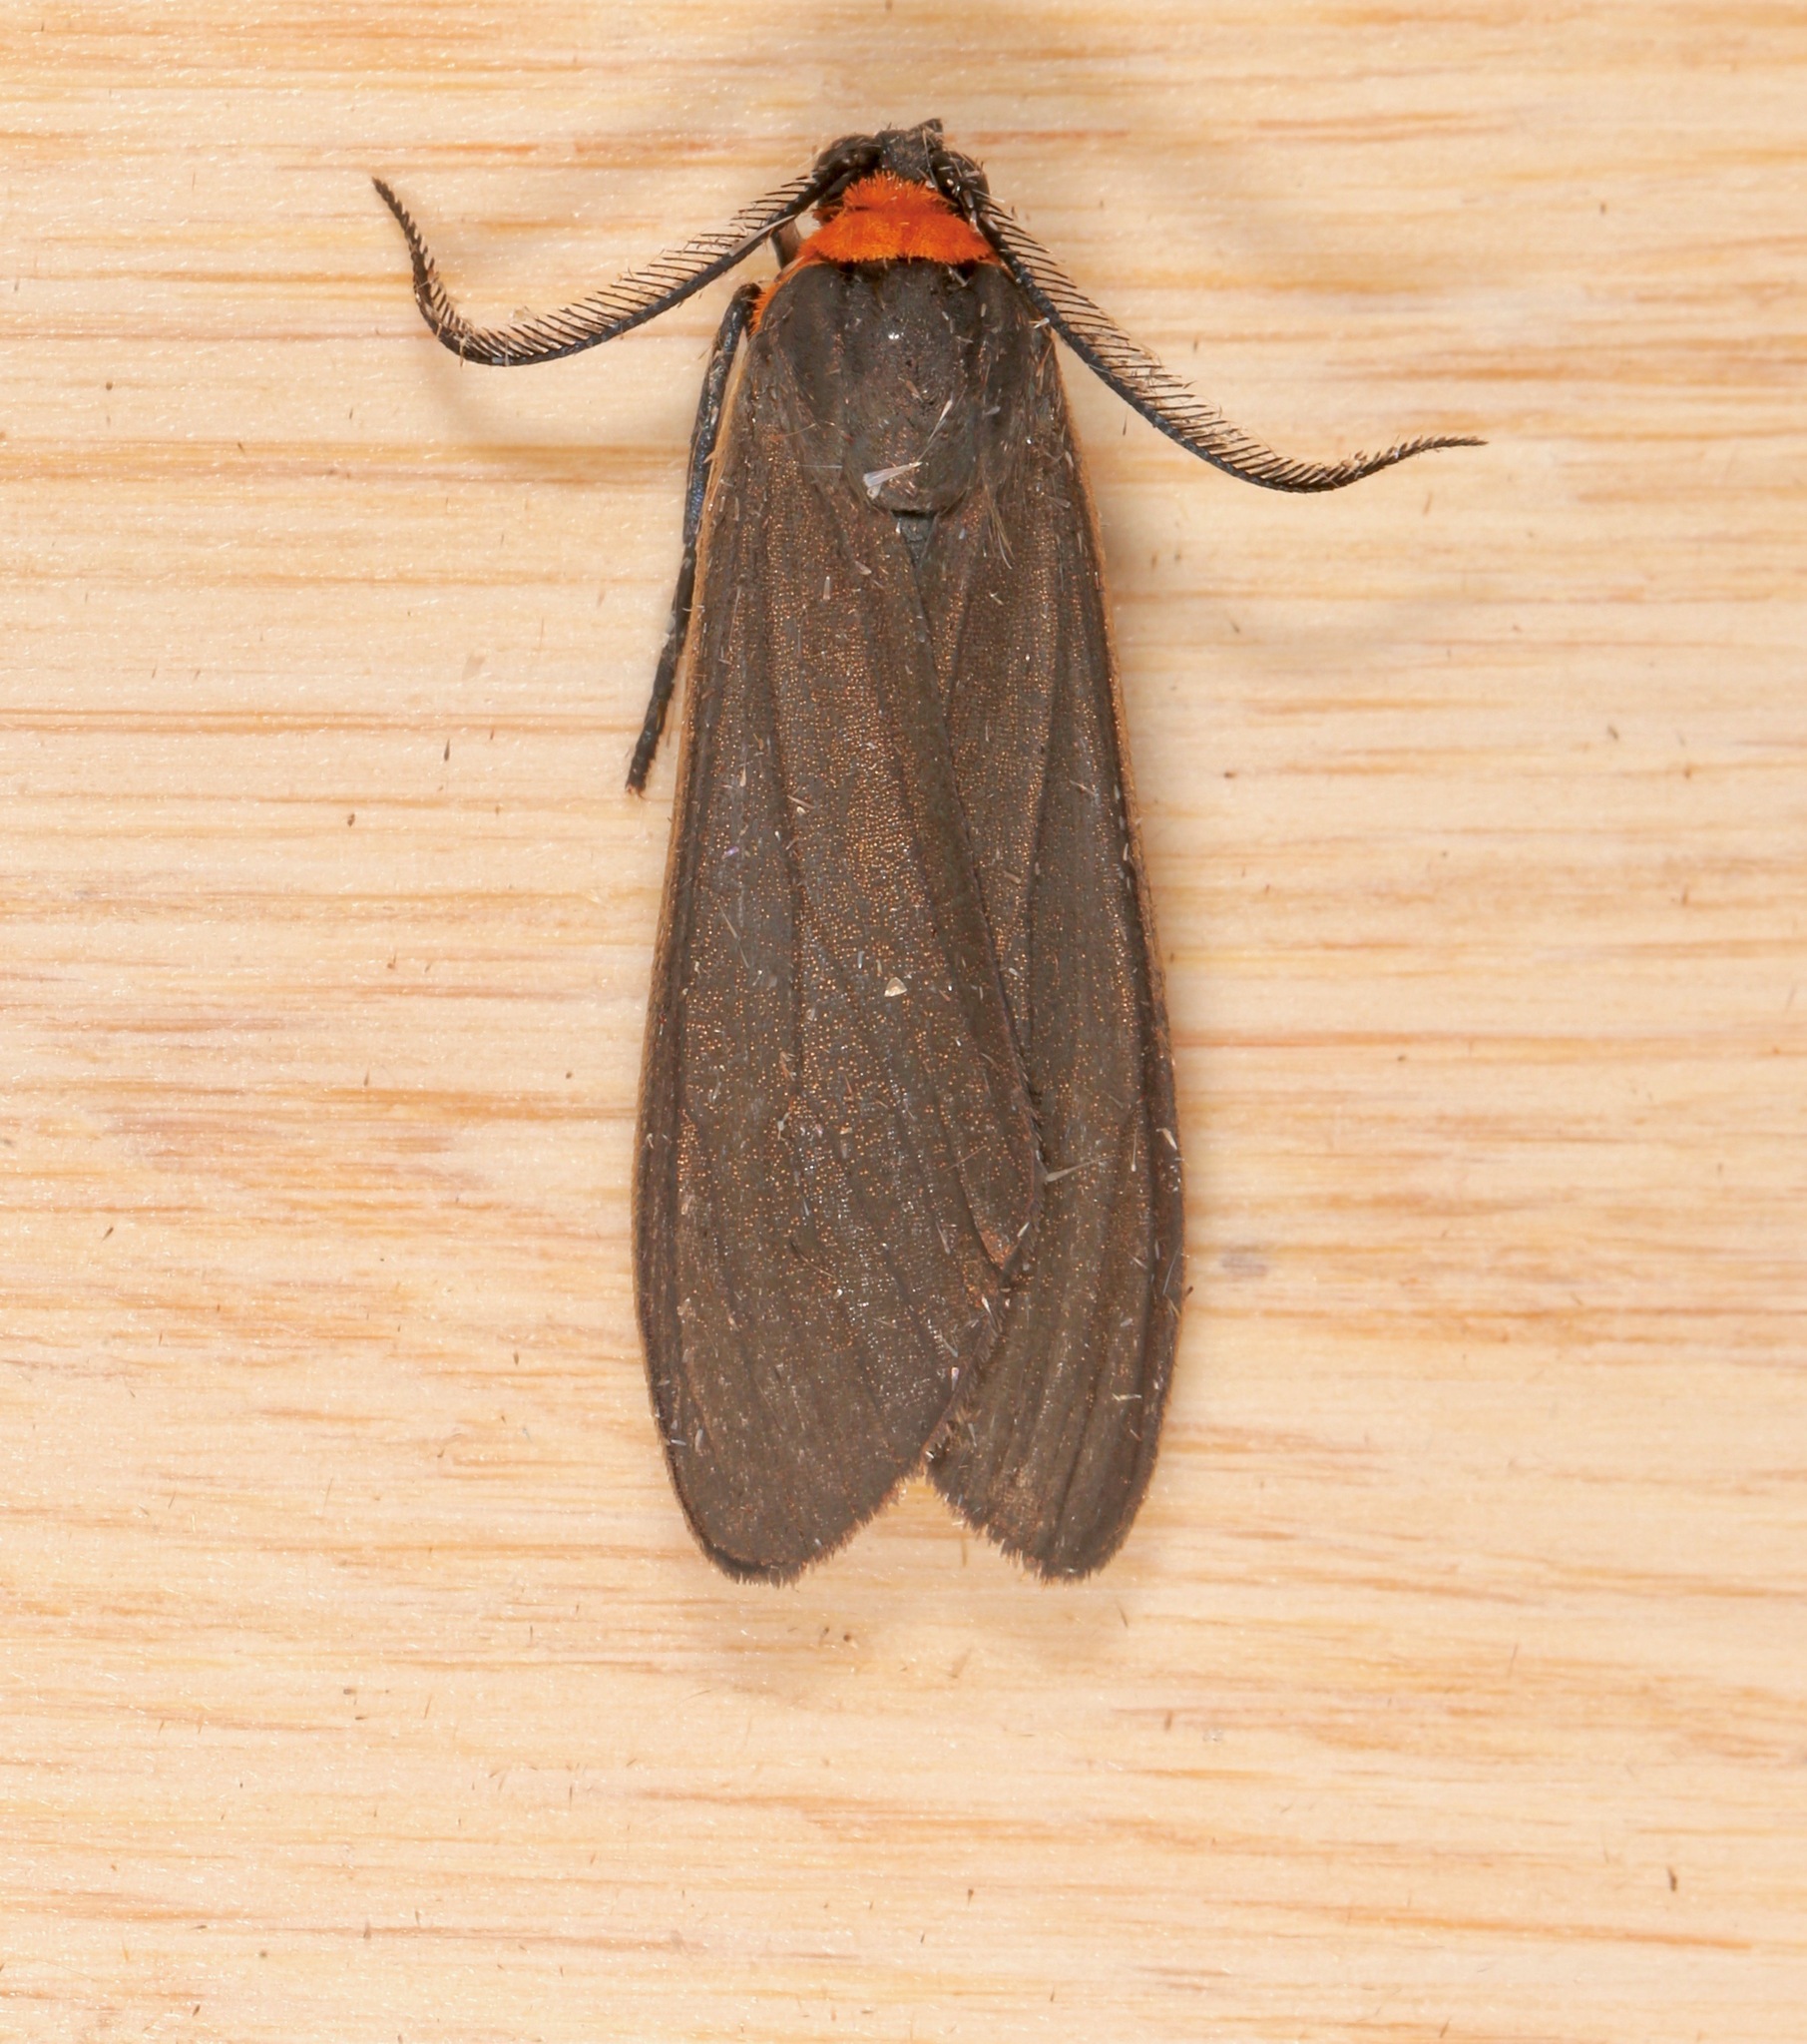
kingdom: Animalia
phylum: Arthropoda
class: Insecta
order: Lepidoptera
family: Erebidae
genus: Cisseps
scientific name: Cisseps fulvicollis
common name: Yellow-collared scape moth
